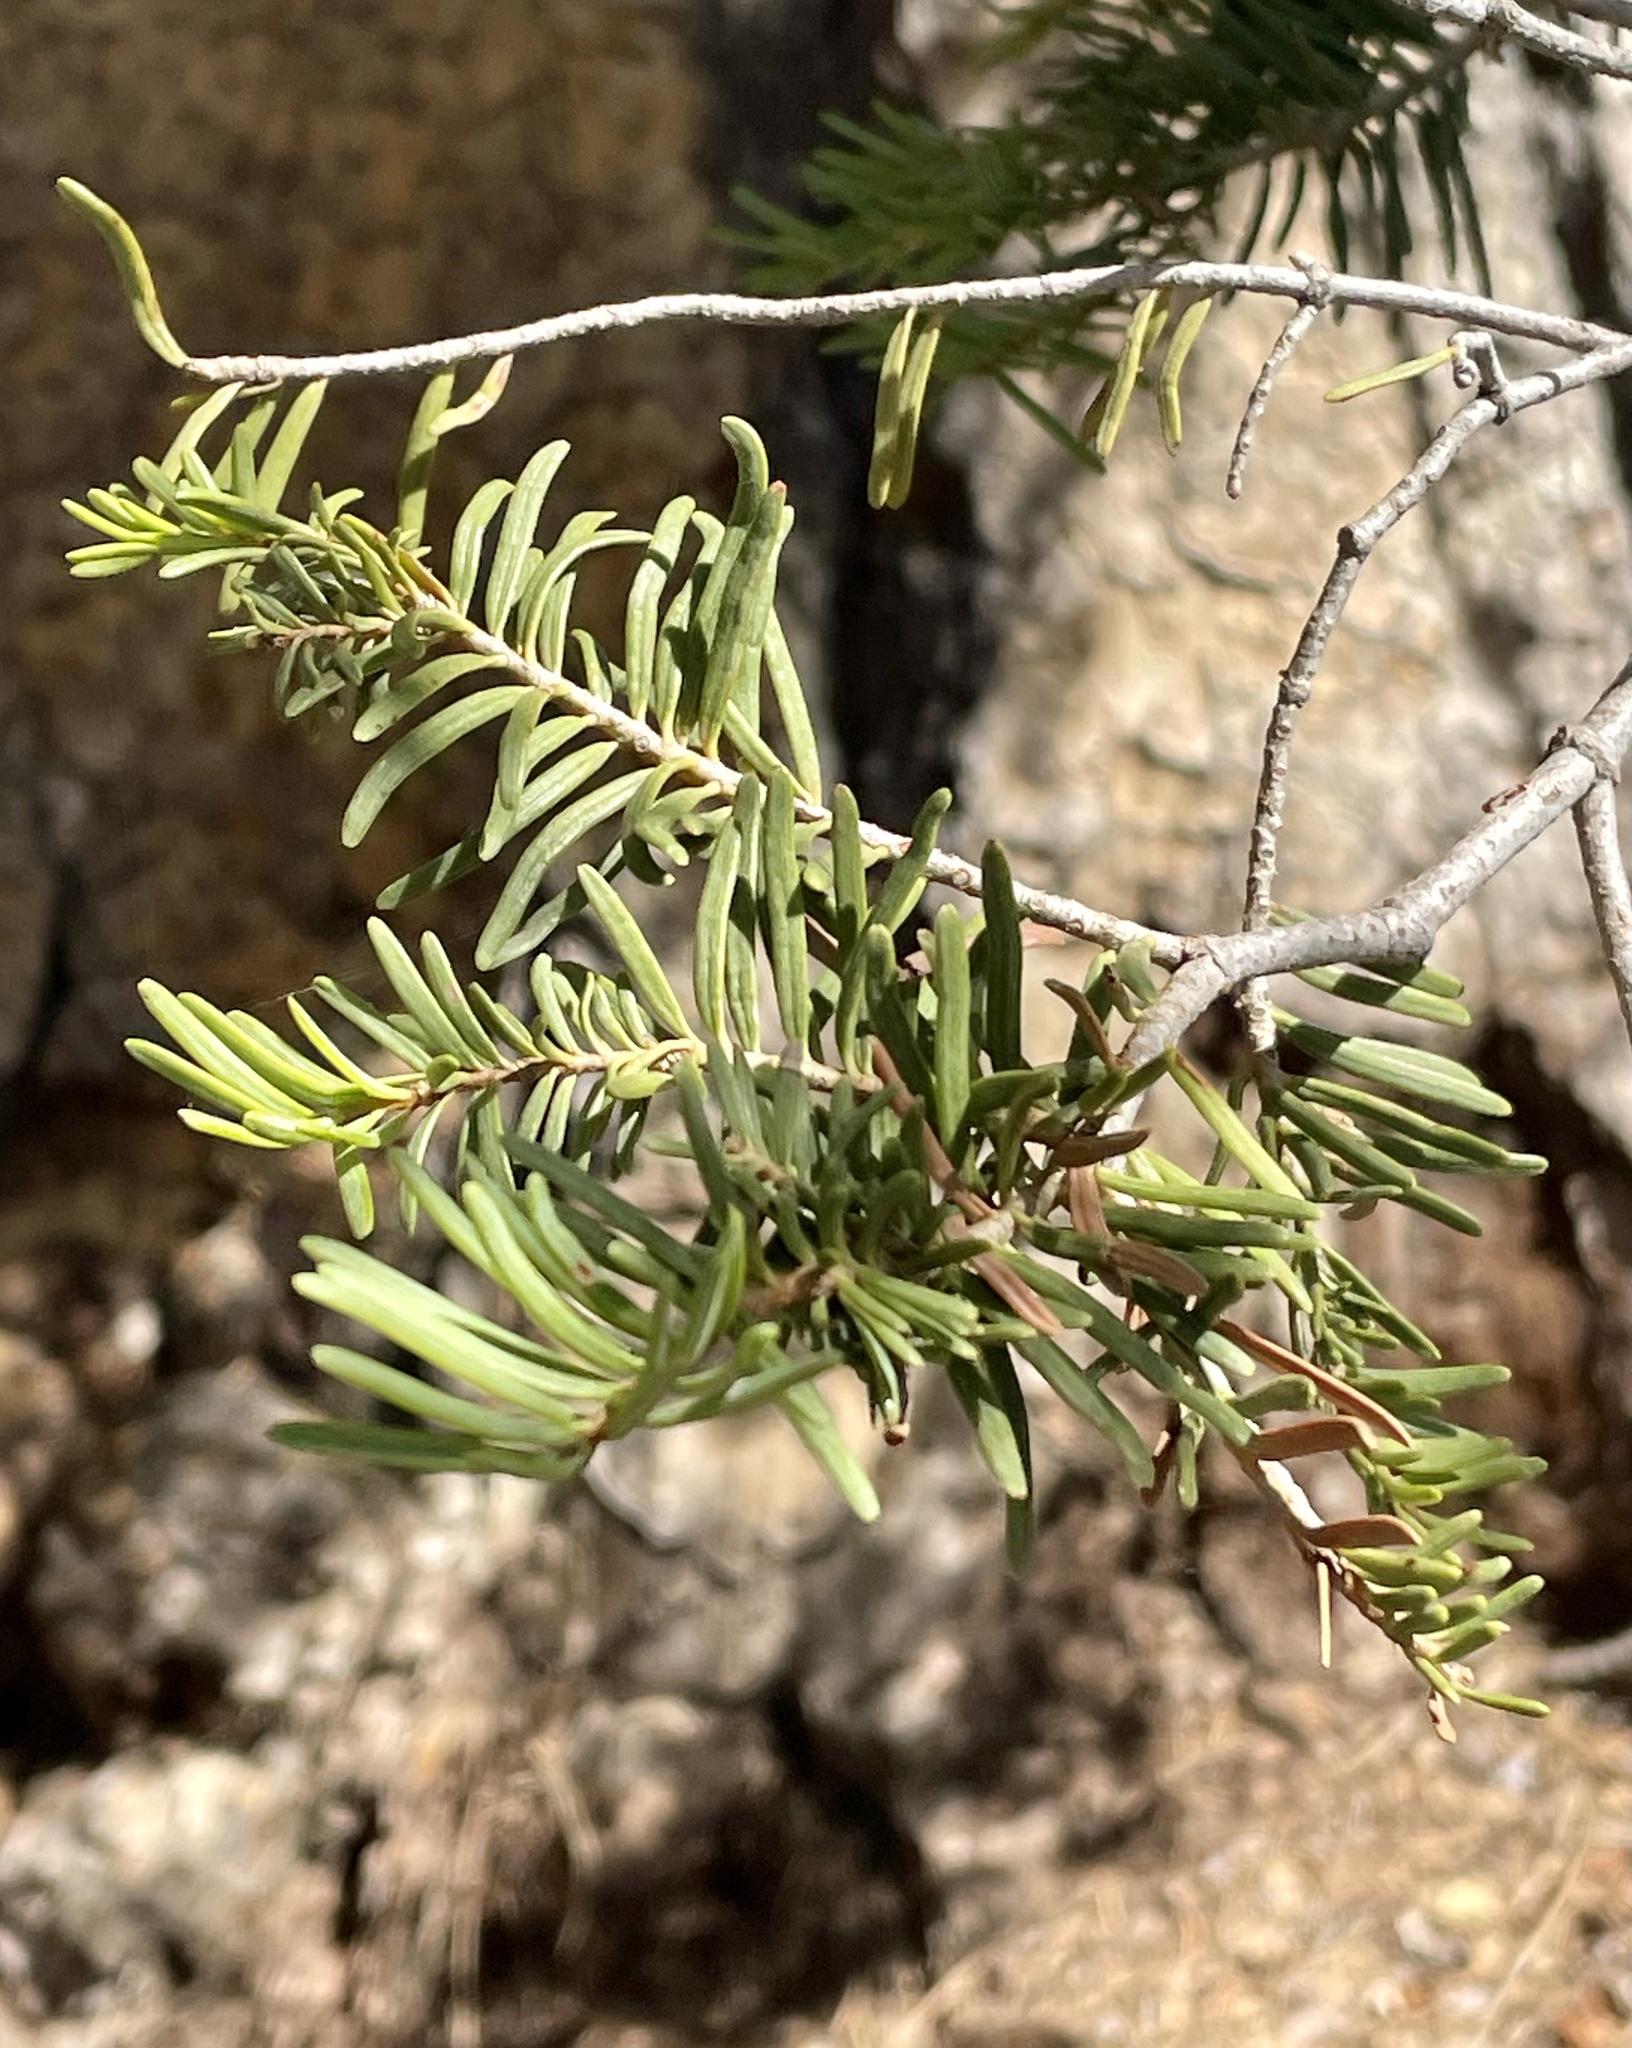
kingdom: Plantae
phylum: Tracheophyta
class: Pinopsida
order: Pinales
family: Pinaceae
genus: Abies
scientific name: Abies concolor
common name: Colorado fir
